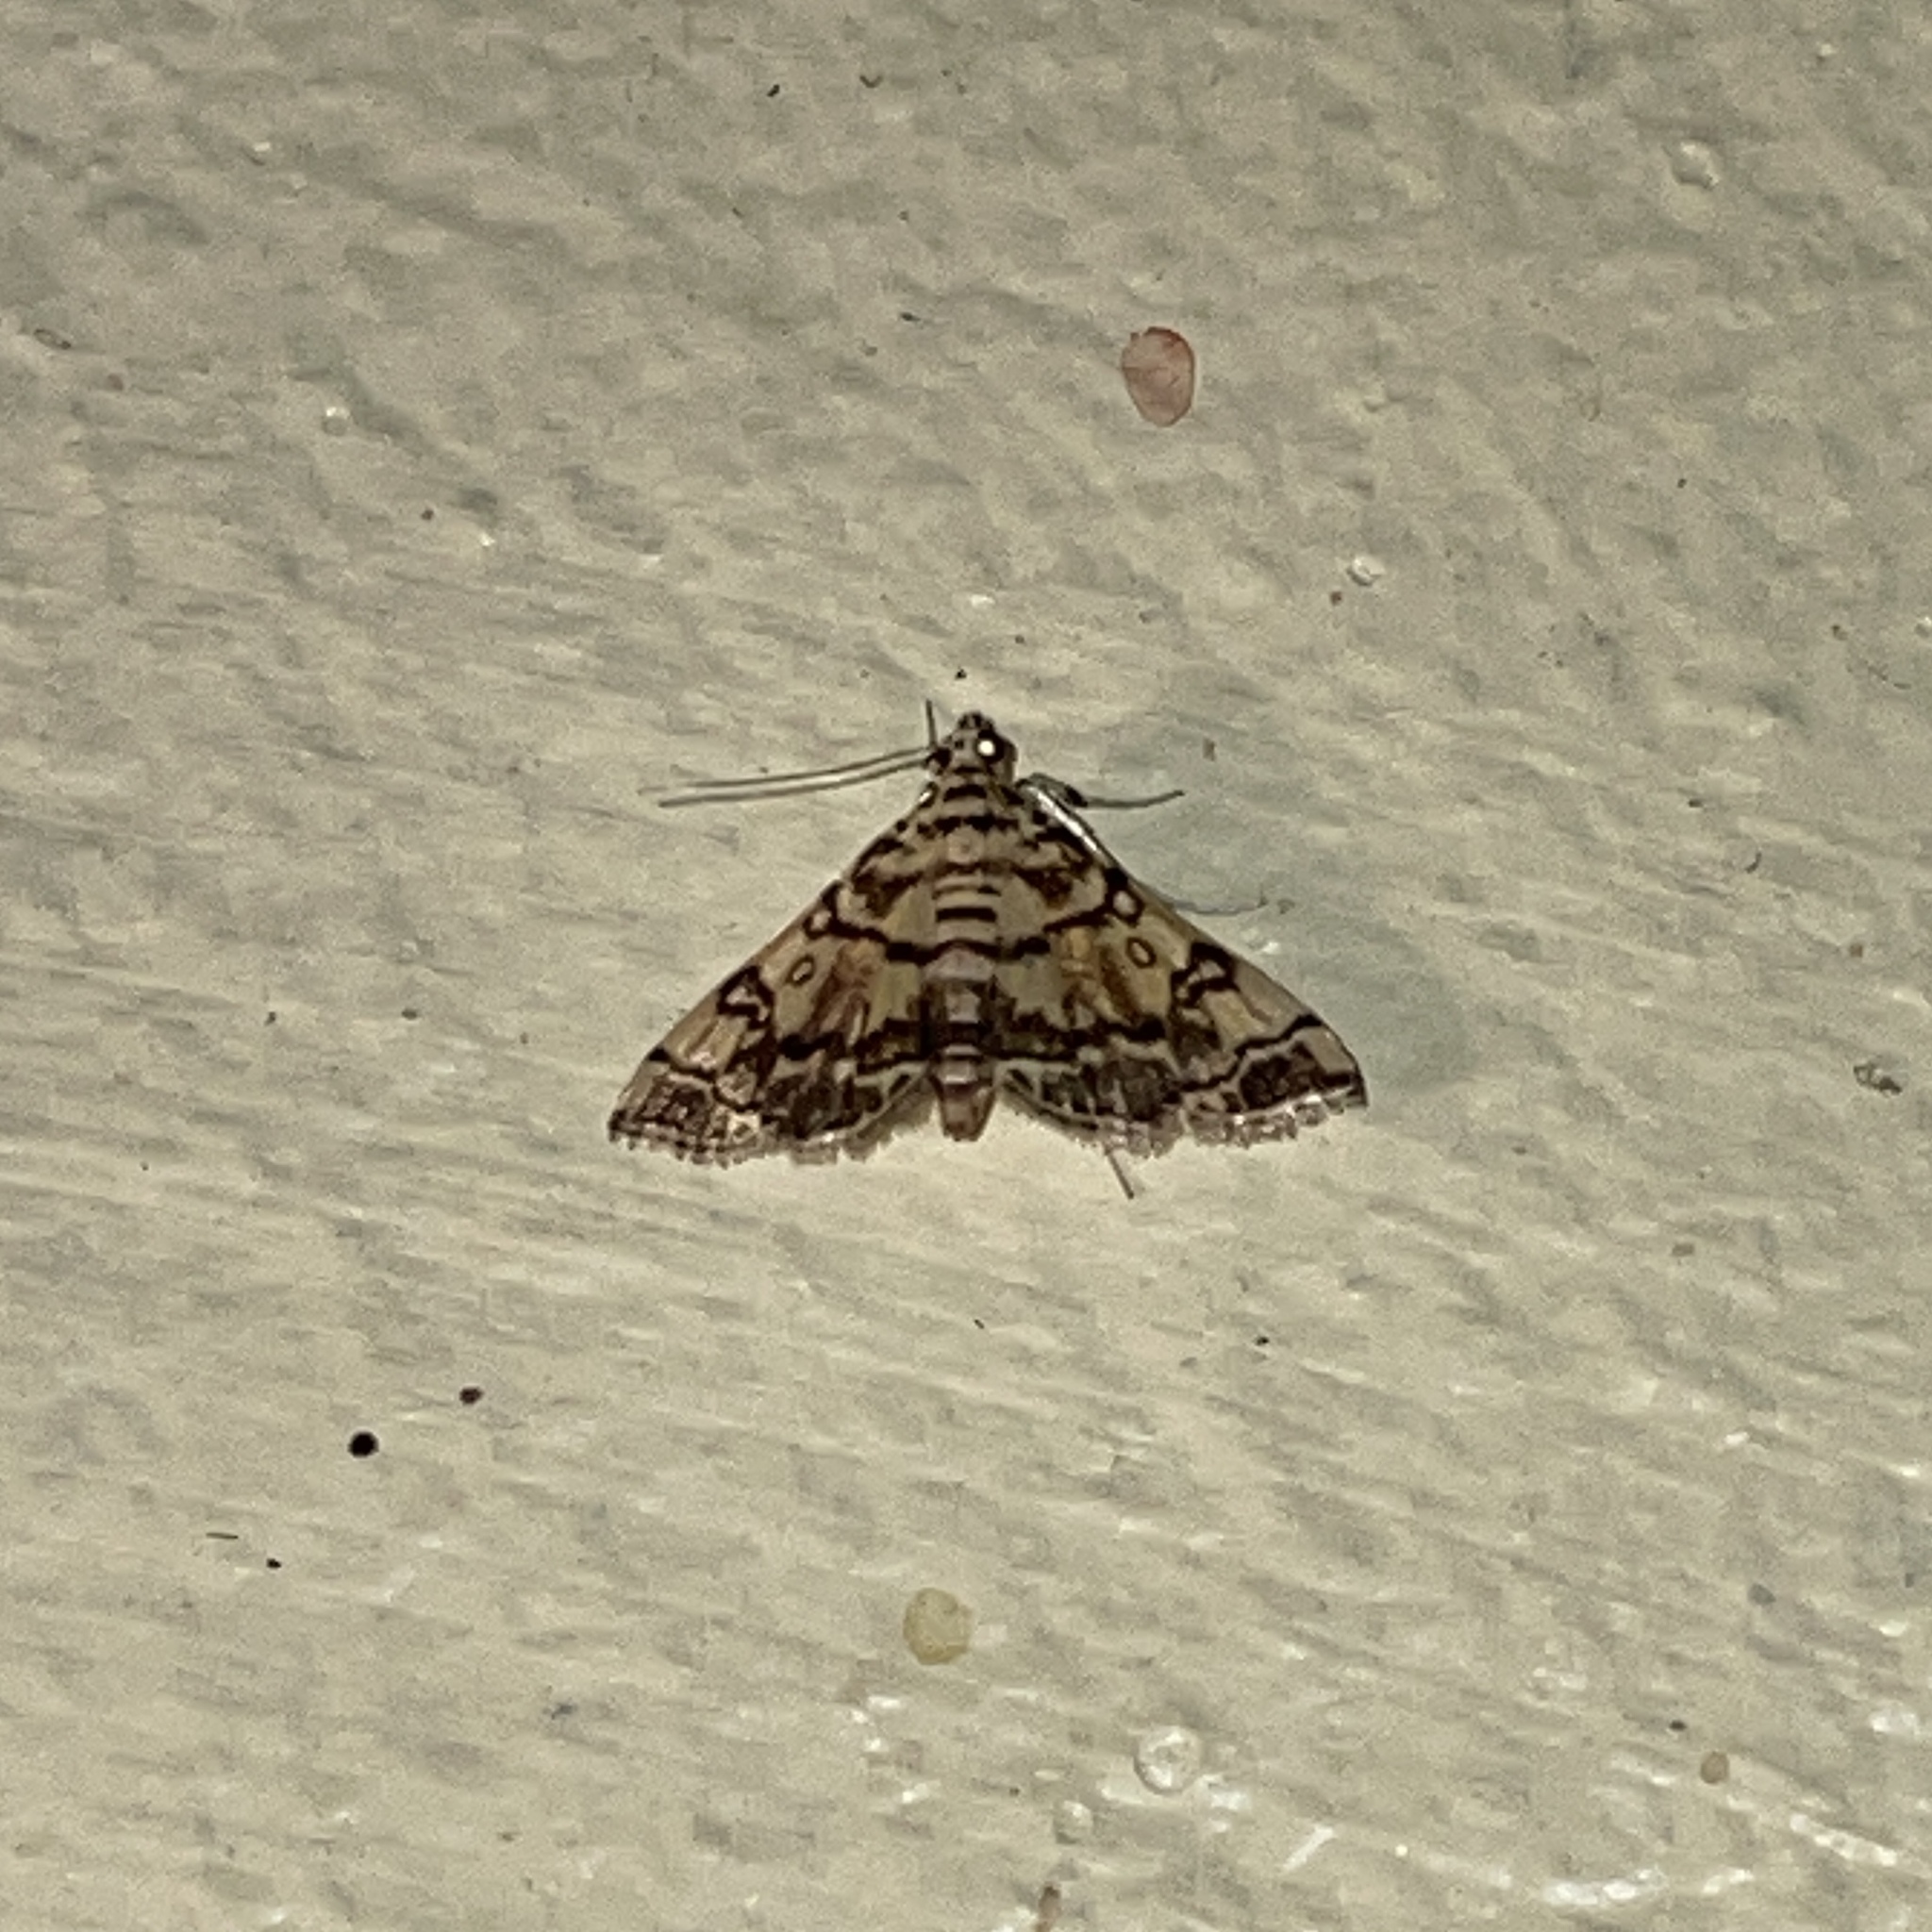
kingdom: Animalia
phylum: Arthropoda
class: Insecta
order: Lepidoptera
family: Crambidae
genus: Apogeshna
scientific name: Apogeshna stenialis
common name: Checkered apogeshna moth
